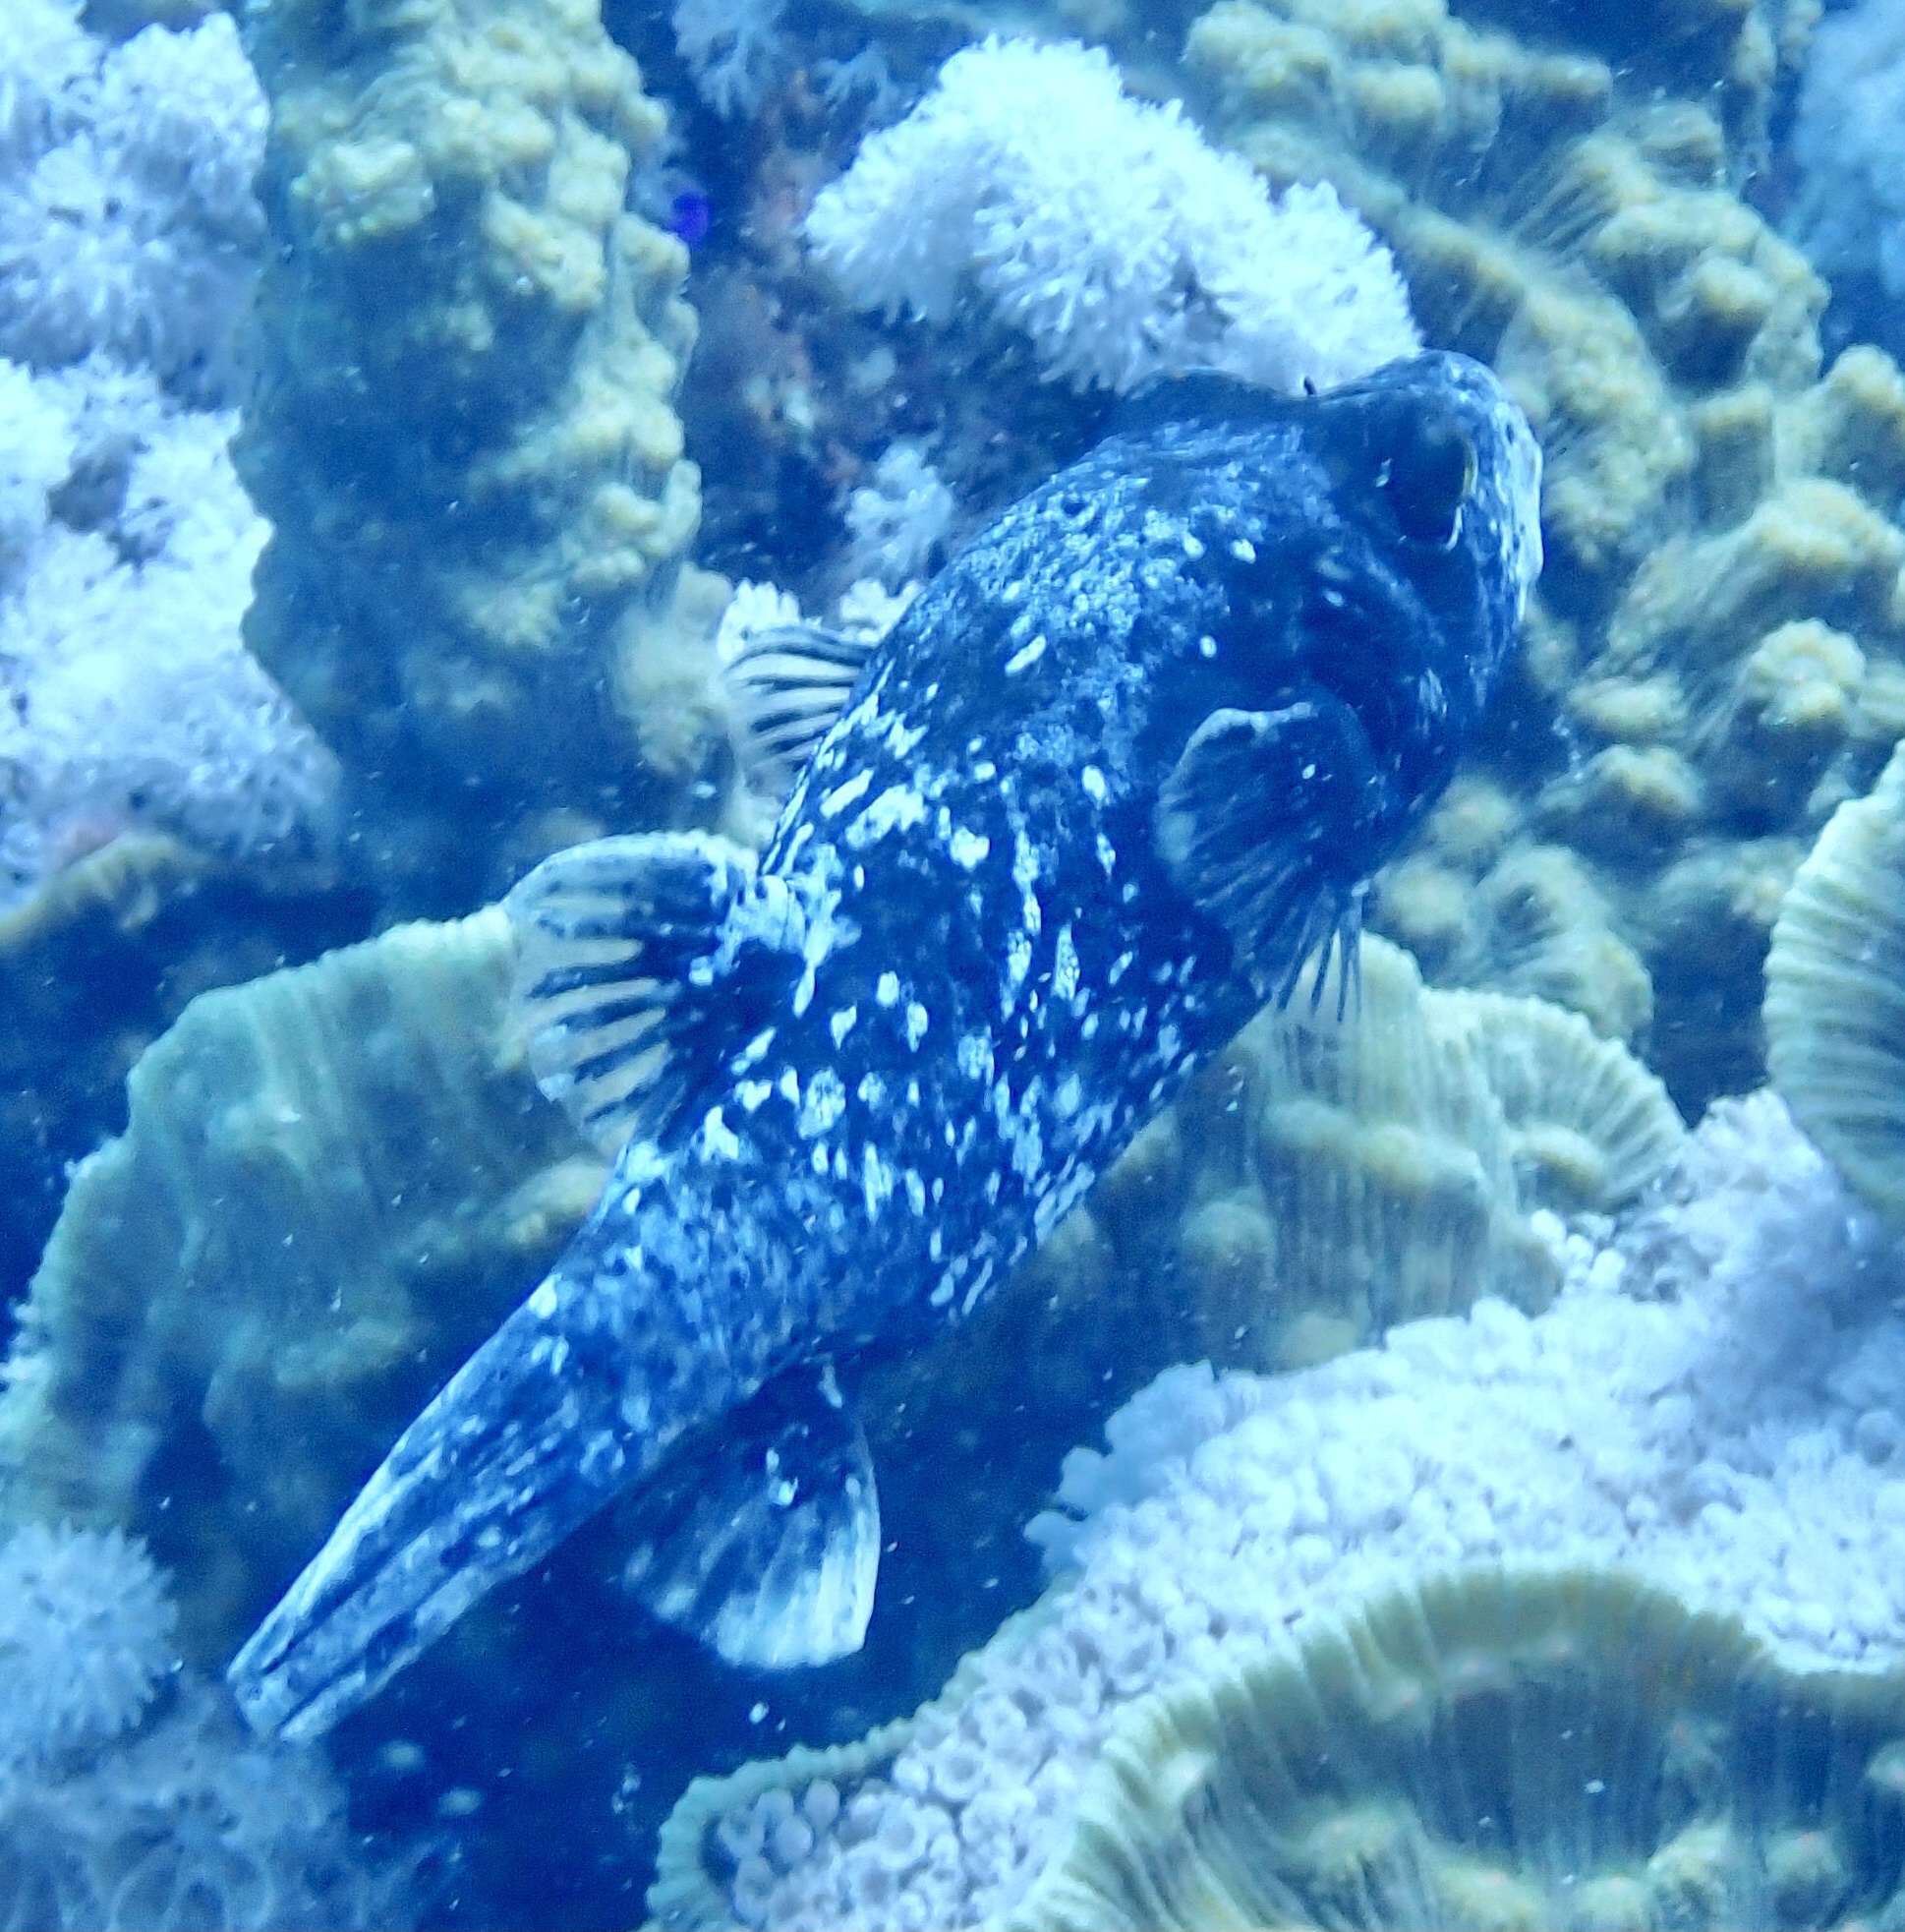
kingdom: Animalia
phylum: Chordata
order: Tetraodontiformes
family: Tetraodontidae
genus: Arothron
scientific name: Arothron diadematus
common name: Masked puffer
